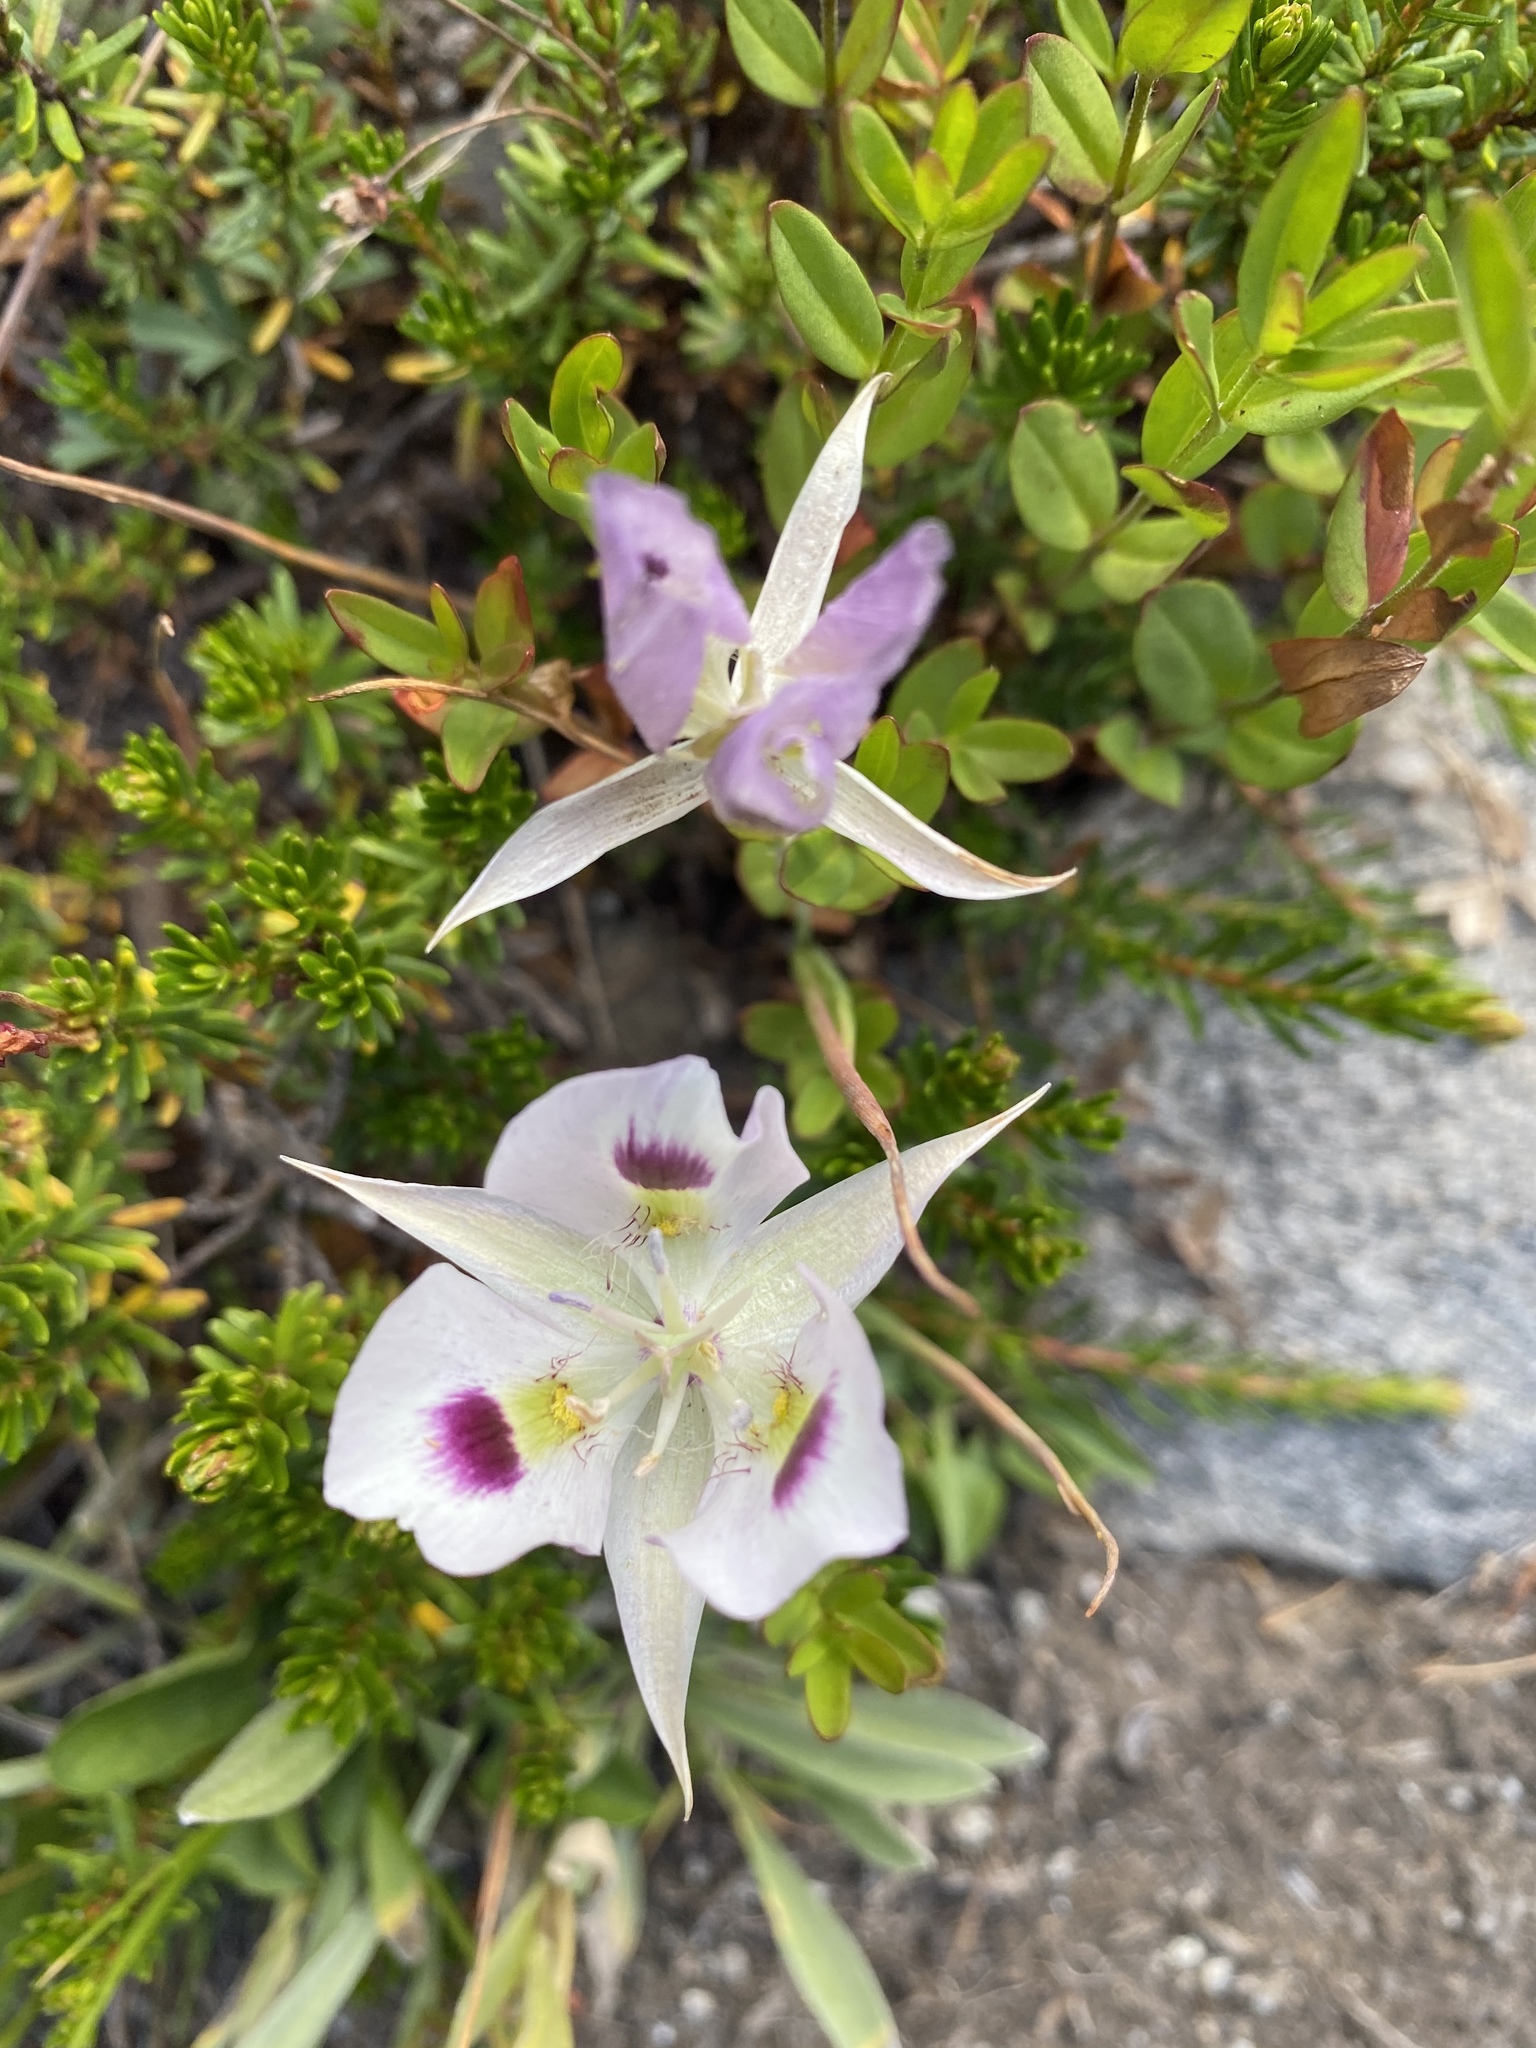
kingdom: Plantae
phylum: Tracheophyta
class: Liliopsida
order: Liliales
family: Liliaceae
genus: Calochortus
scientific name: Calochortus eurycarpus
